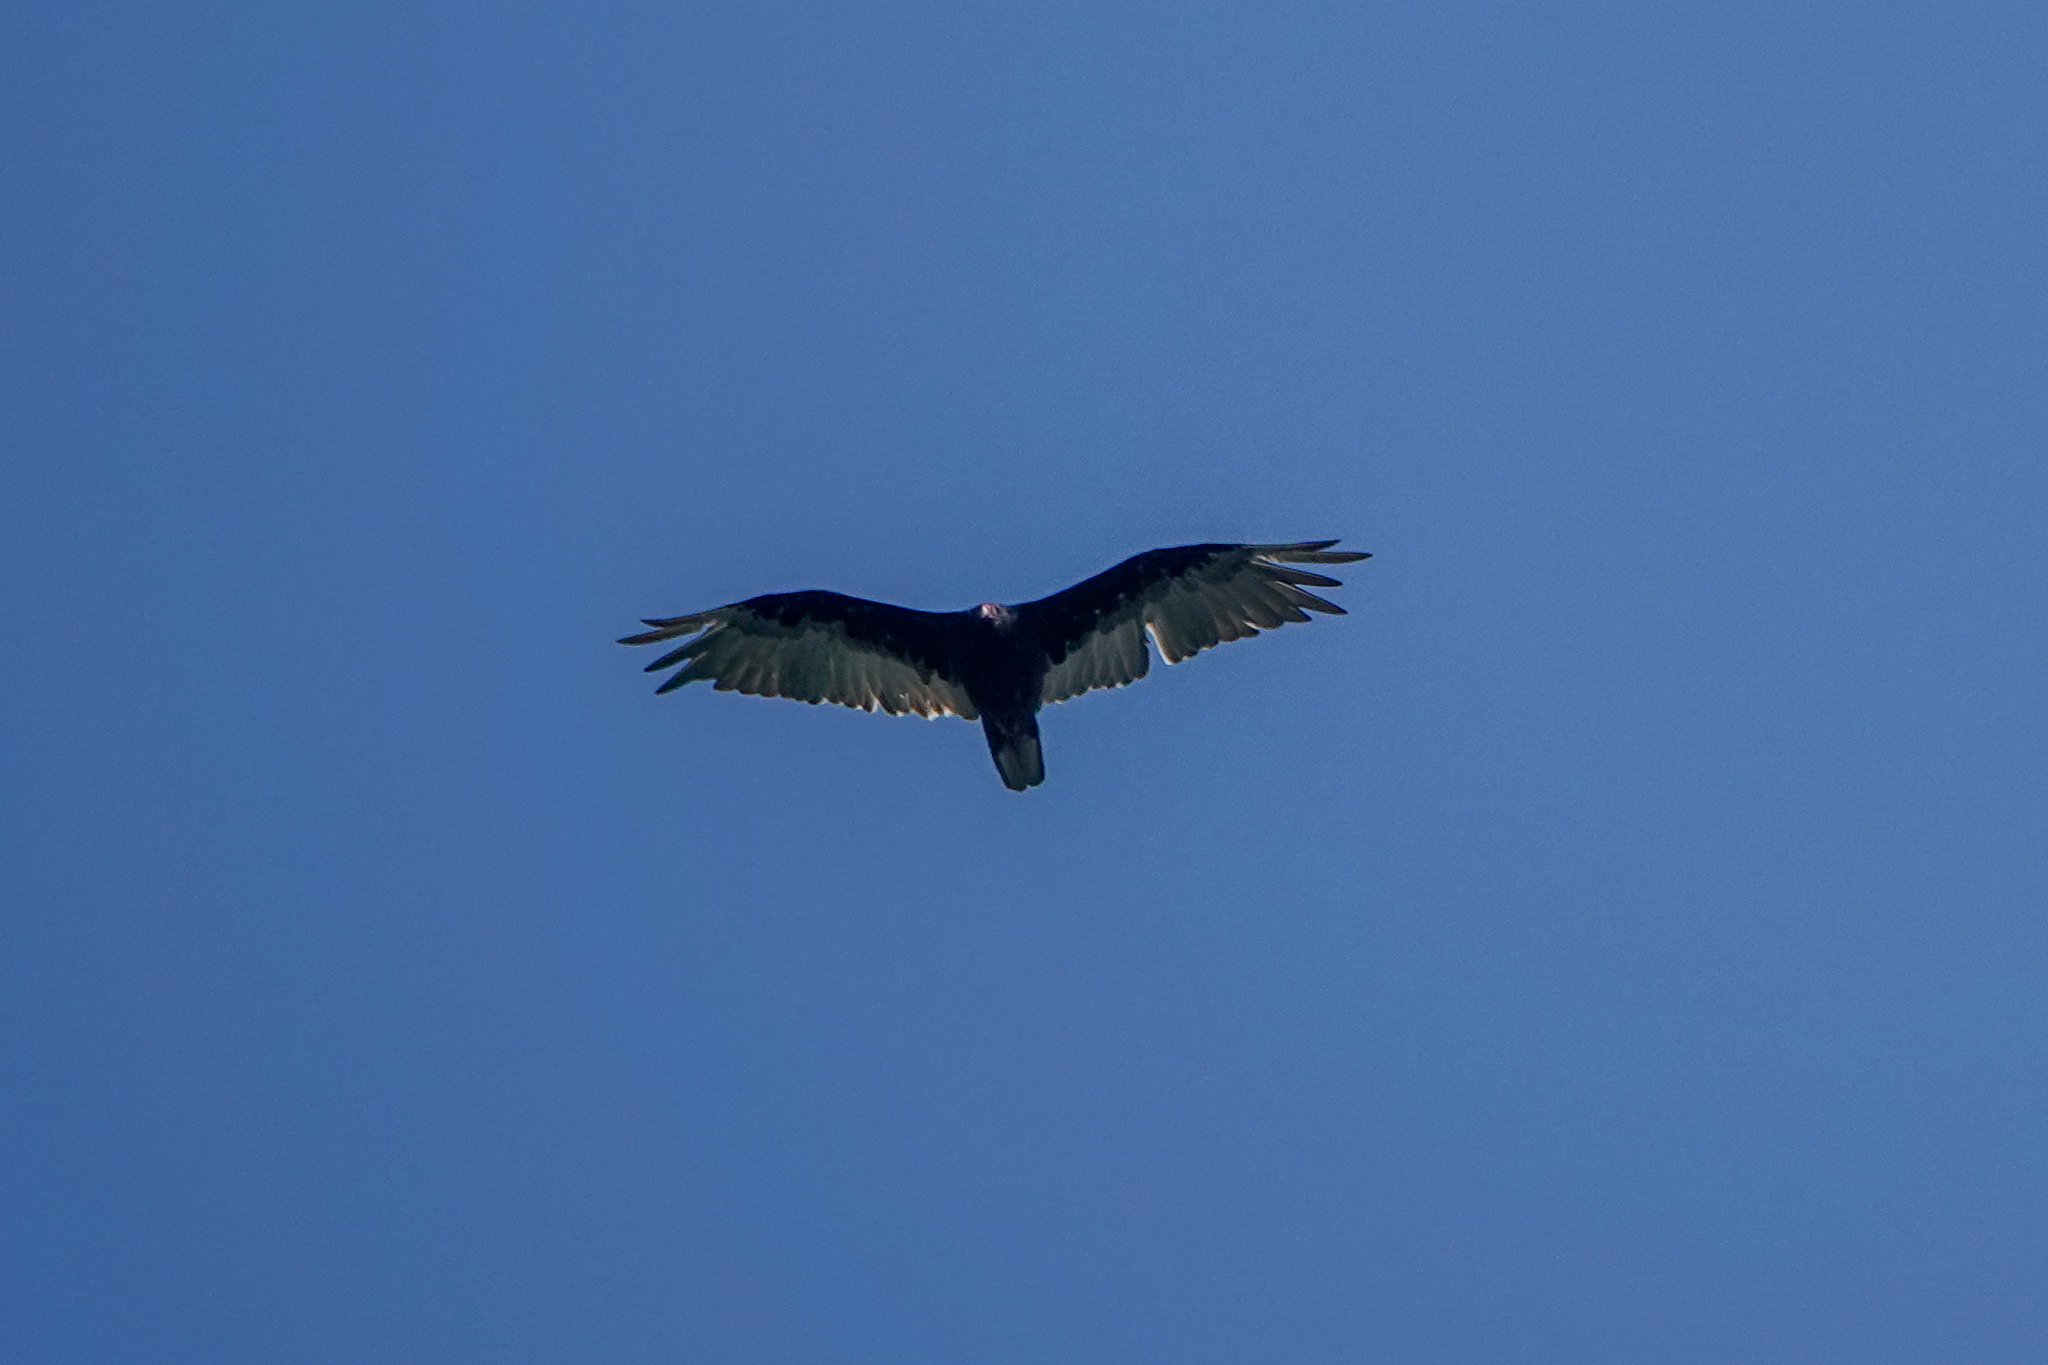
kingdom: Animalia
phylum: Chordata
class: Aves
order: Accipitriformes
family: Cathartidae
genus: Cathartes
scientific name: Cathartes aura
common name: Turkey vulture
